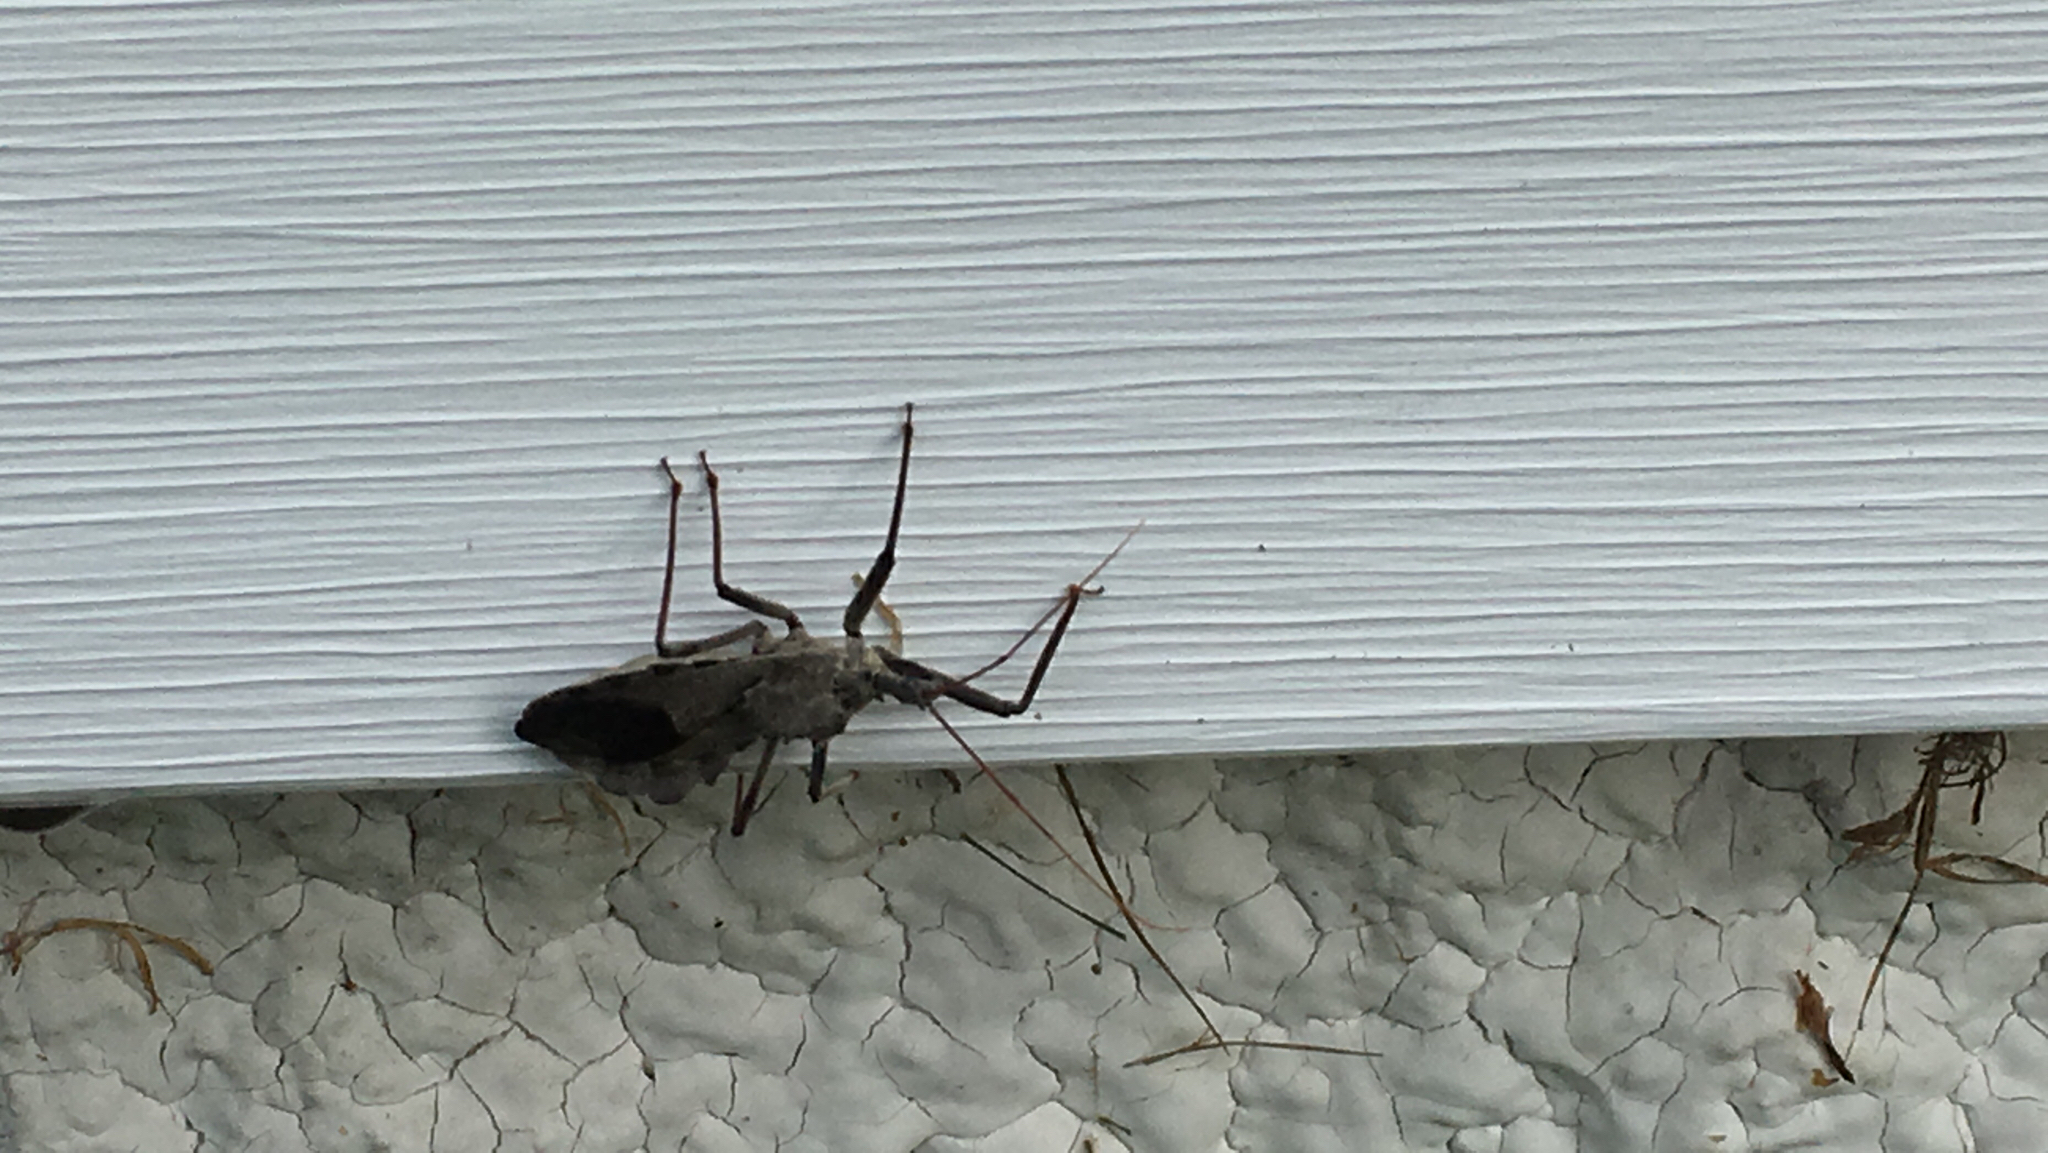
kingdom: Animalia
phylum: Arthropoda
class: Insecta
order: Hemiptera
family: Reduviidae
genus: Arilus
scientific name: Arilus cristatus
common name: North american wheel bug
